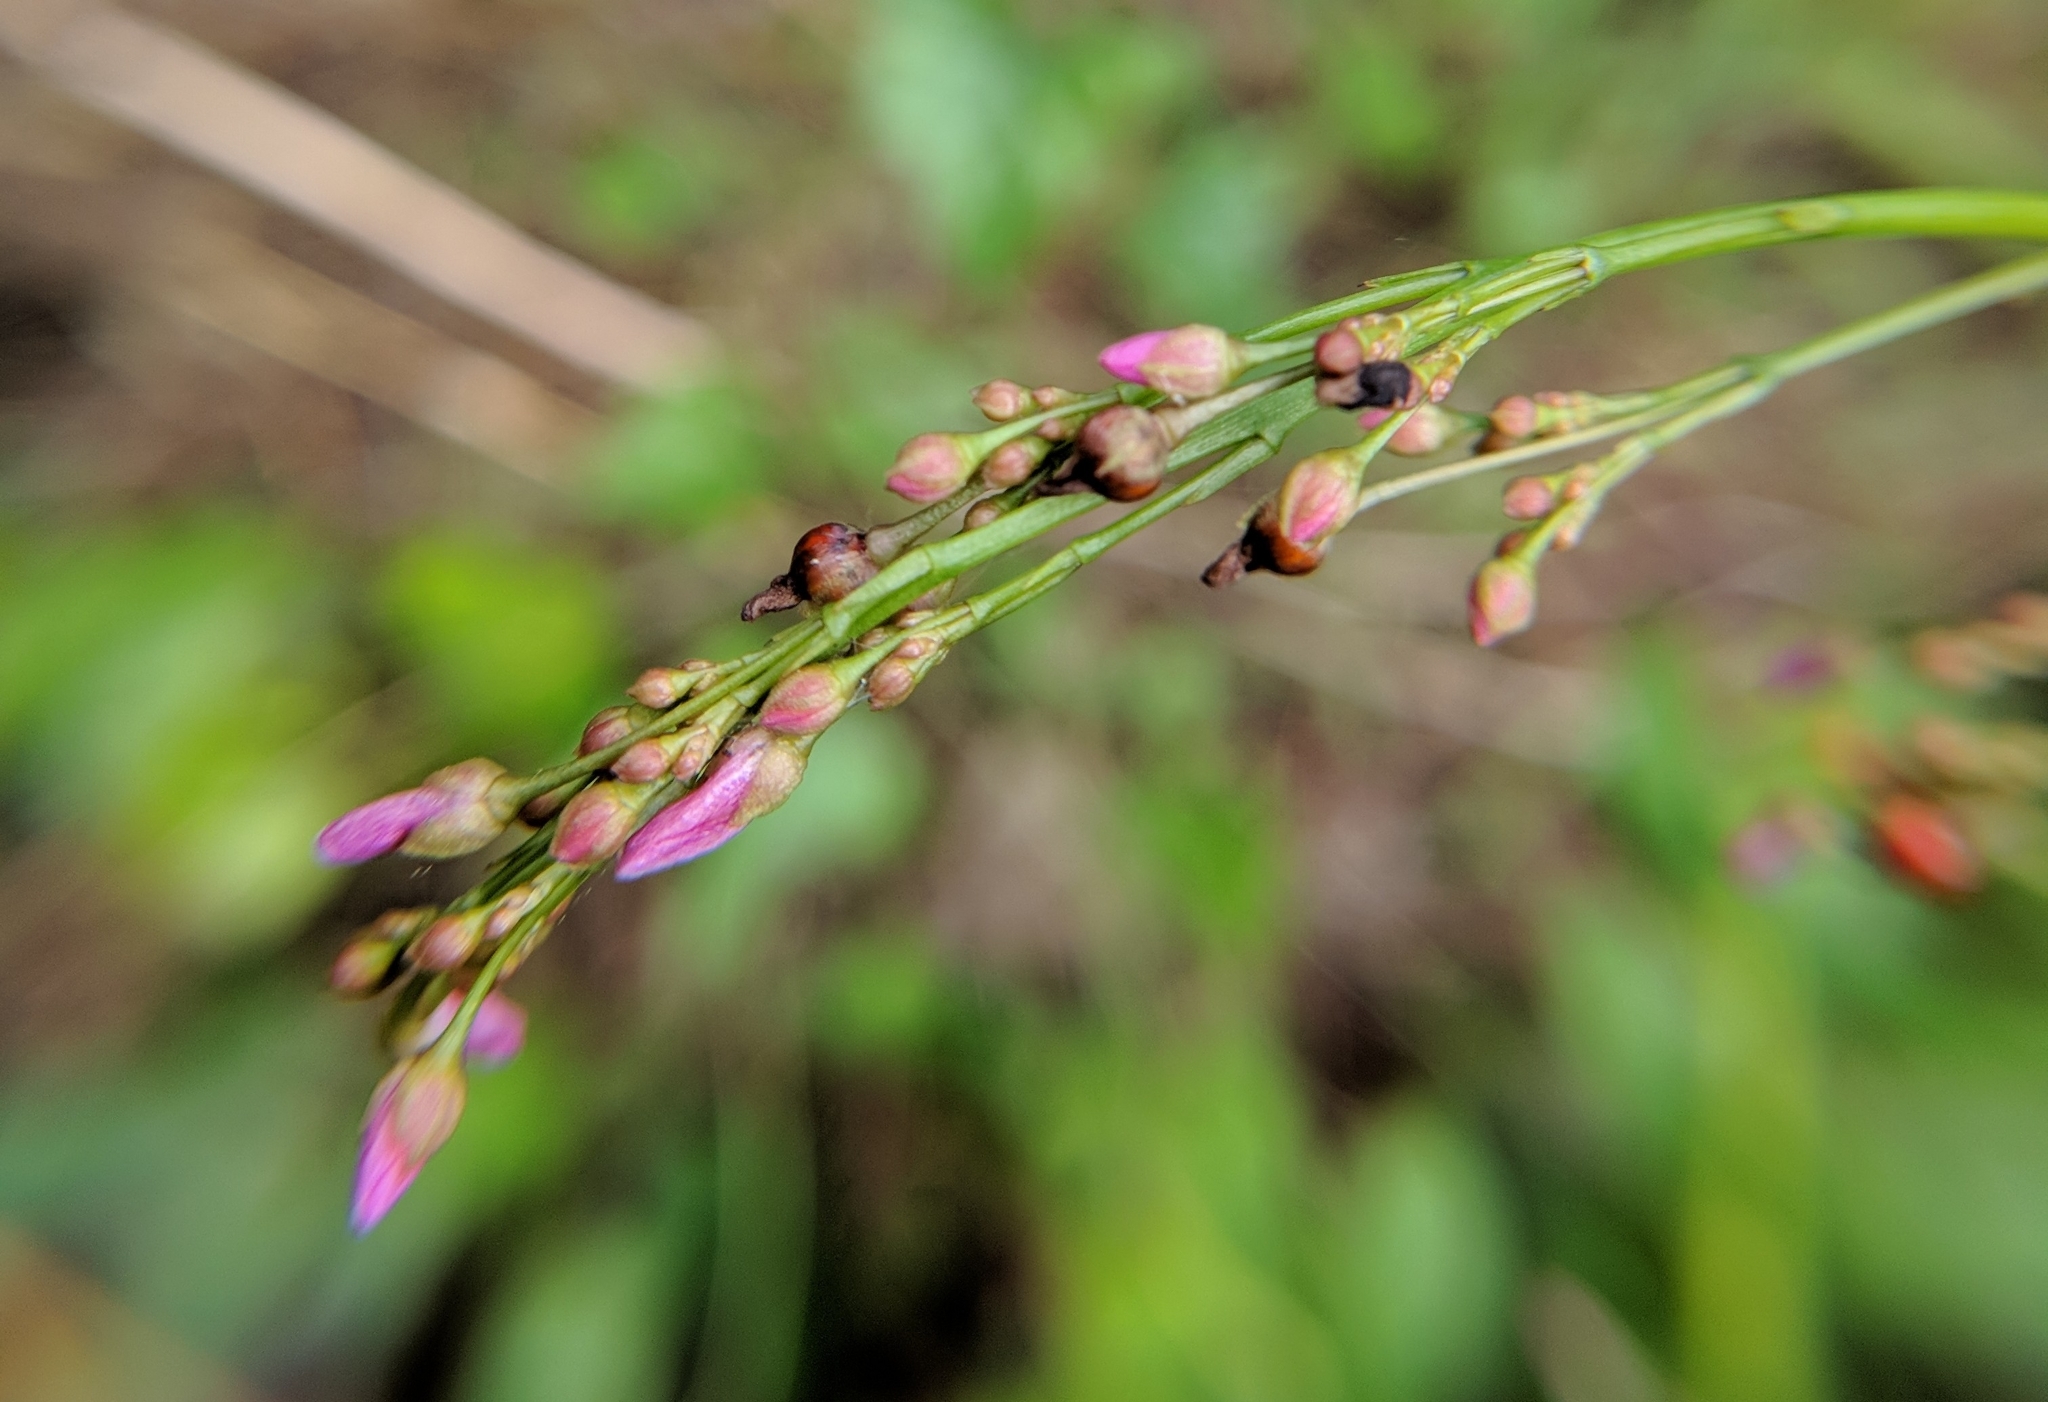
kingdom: Plantae
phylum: Tracheophyta
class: Magnoliopsida
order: Caryophyllales
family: Talinaceae
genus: Talinum
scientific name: Talinum paniculatum
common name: Jewels of opar
